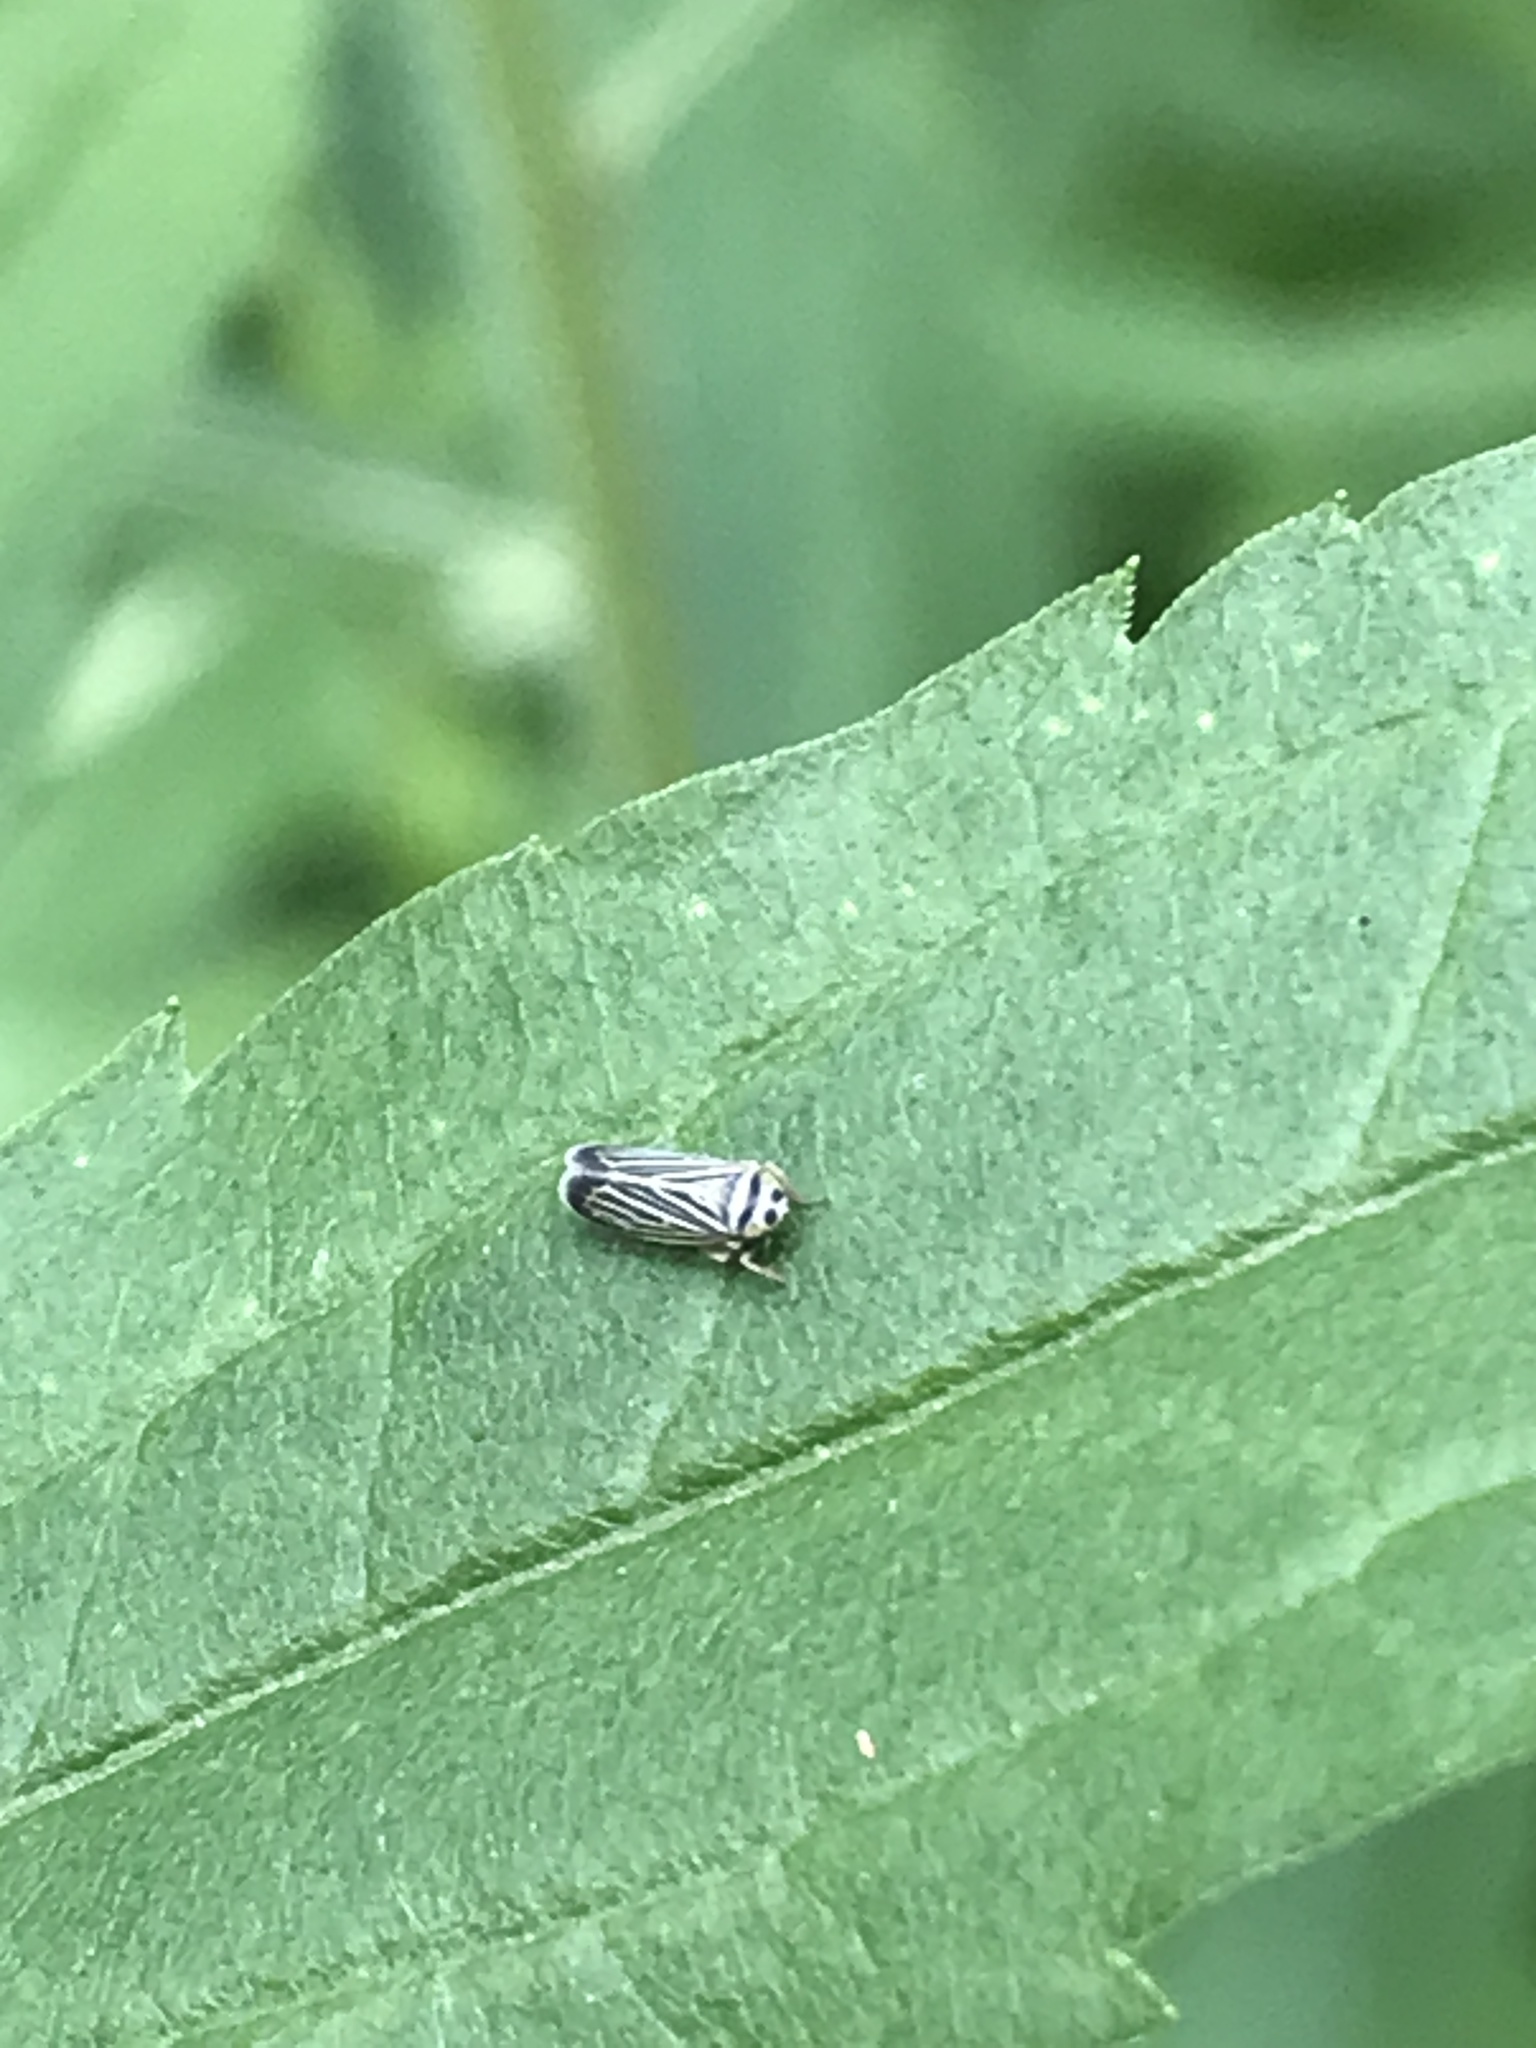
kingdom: Animalia
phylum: Arthropoda
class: Insecta
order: Hemiptera
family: Cicadellidae
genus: Amblysellus
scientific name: Amblysellus curtisii
